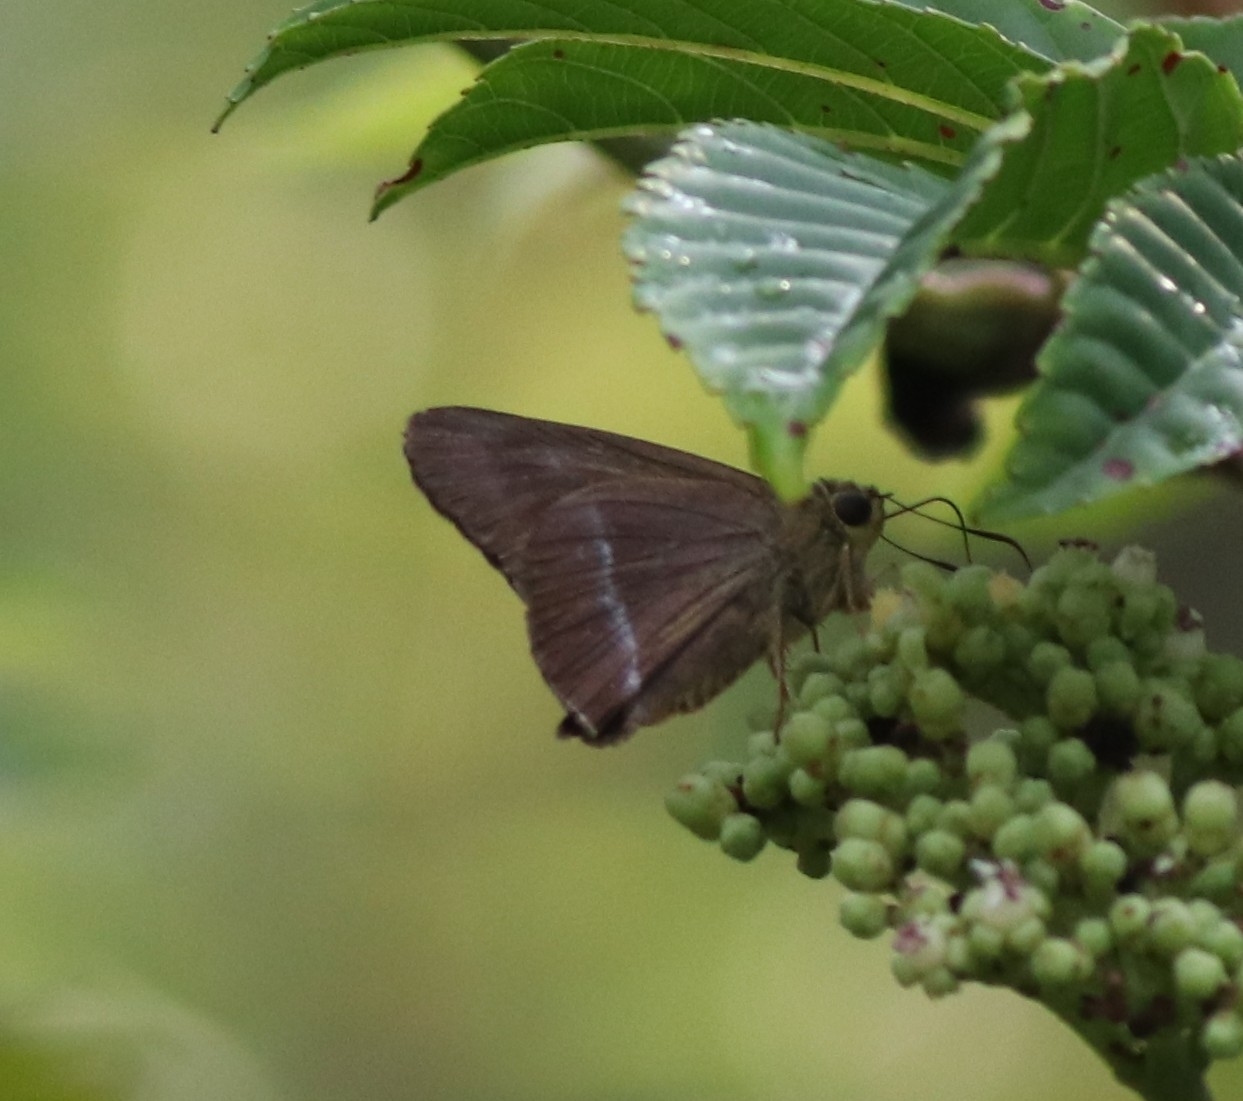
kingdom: Animalia
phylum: Arthropoda
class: Insecta
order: Lepidoptera
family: Hesperiidae
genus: Hasora
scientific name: Hasora chromus
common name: Common banded awl
